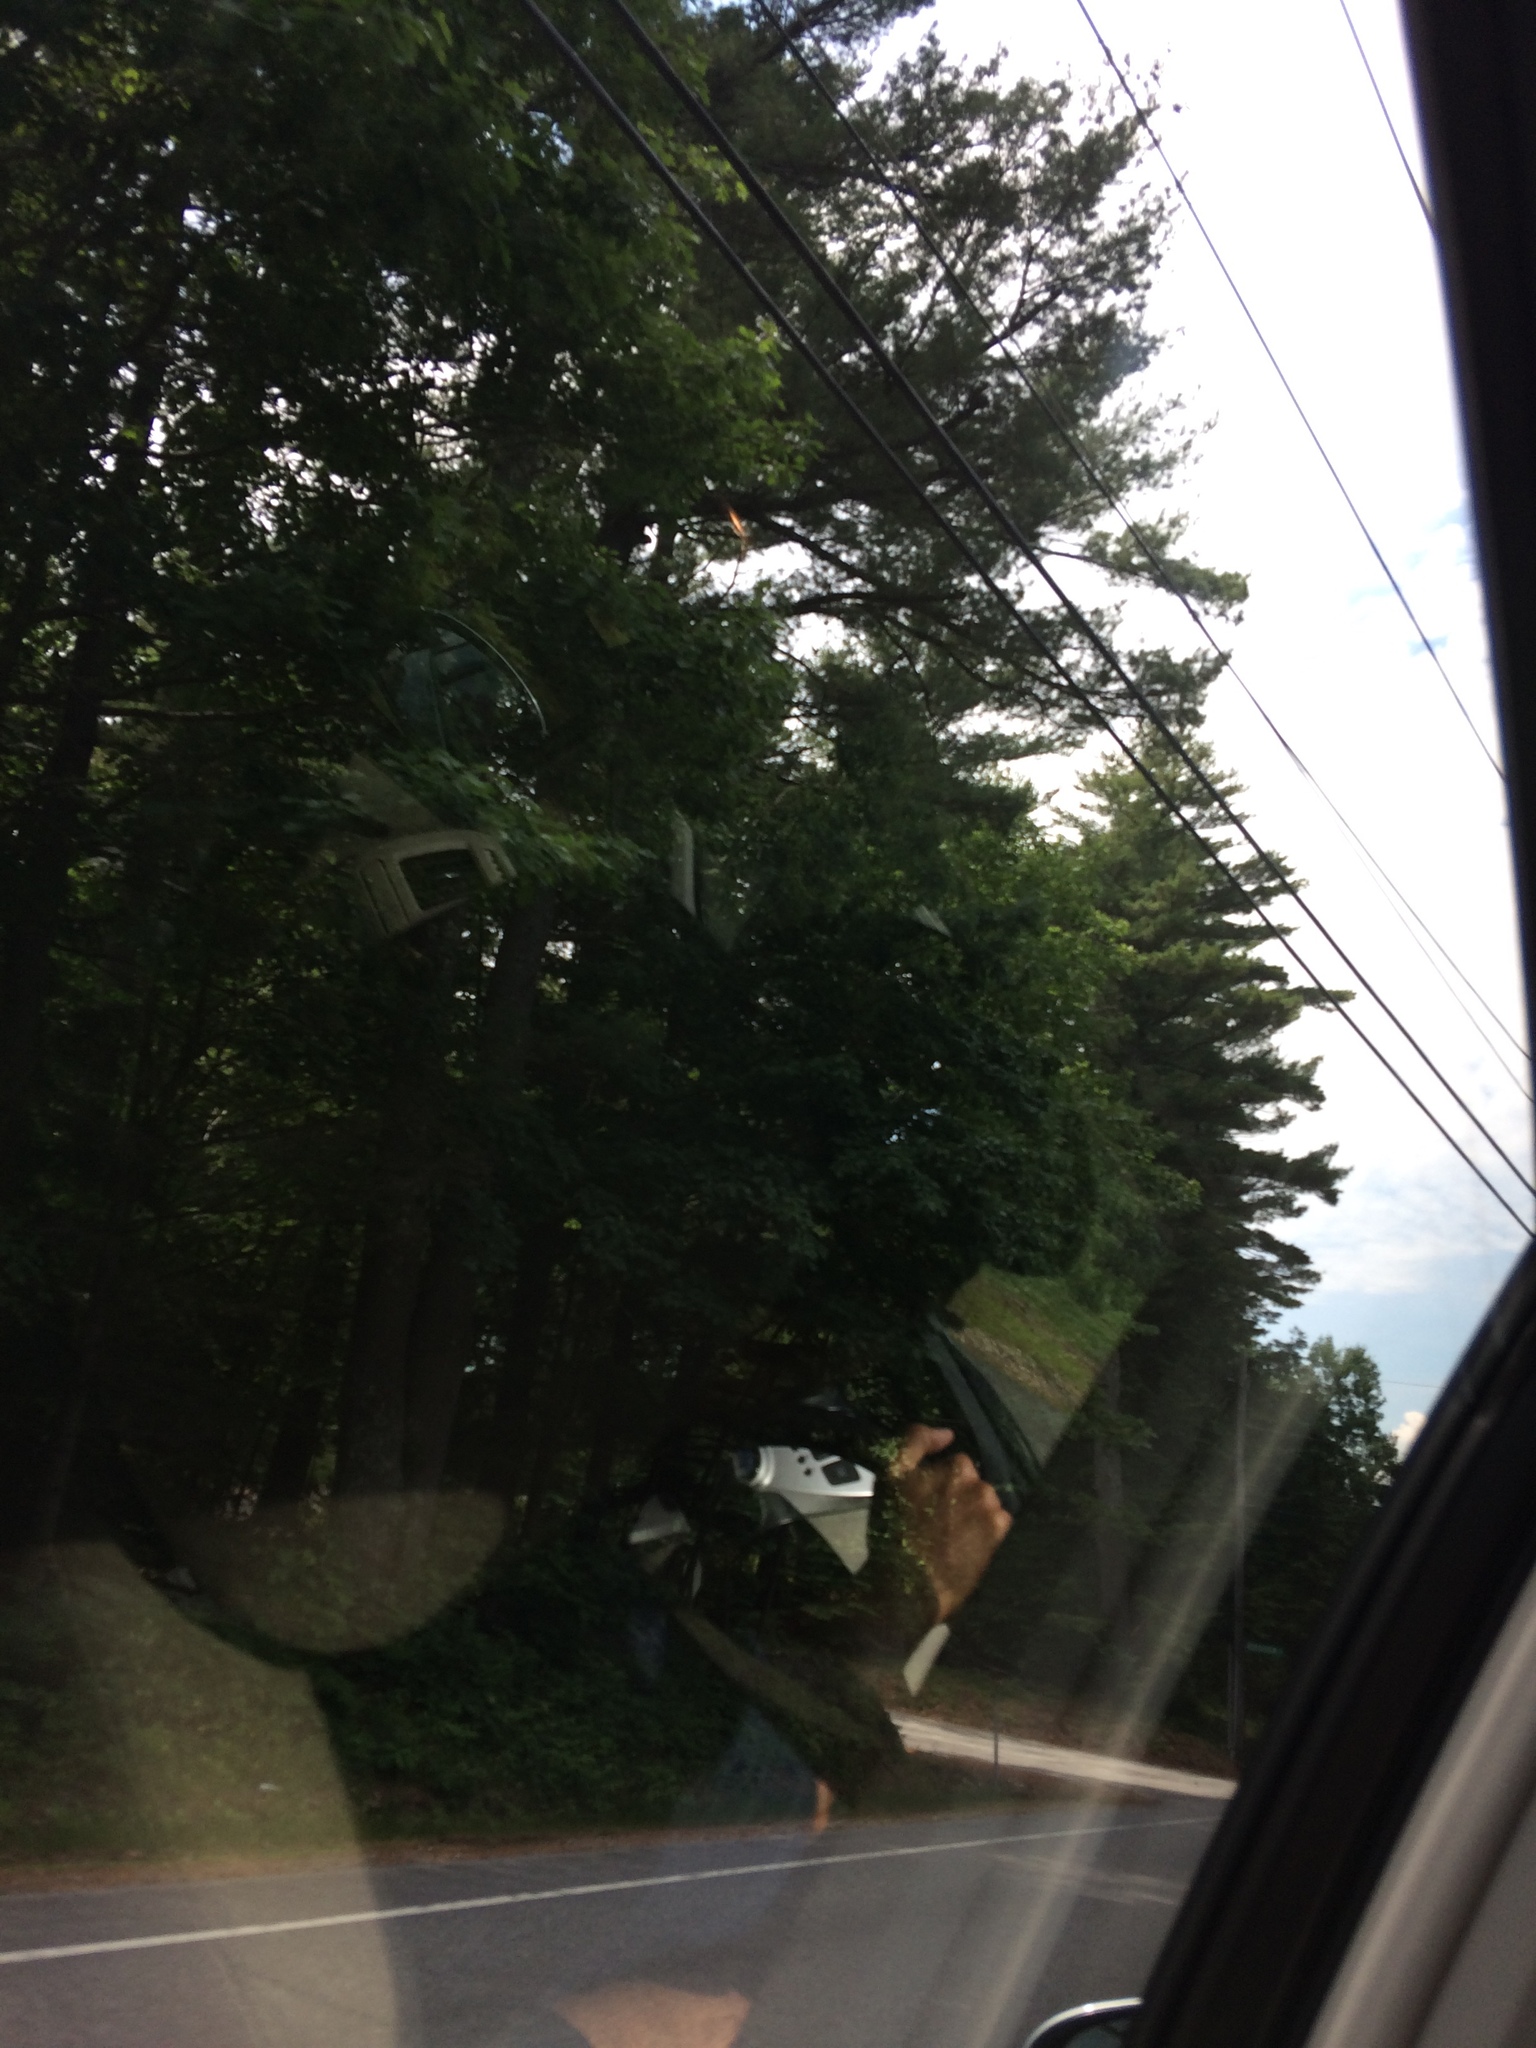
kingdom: Plantae
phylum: Tracheophyta
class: Pinopsida
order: Pinales
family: Pinaceae
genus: Pinus
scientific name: Pinus strobus
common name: Weymouth pine
